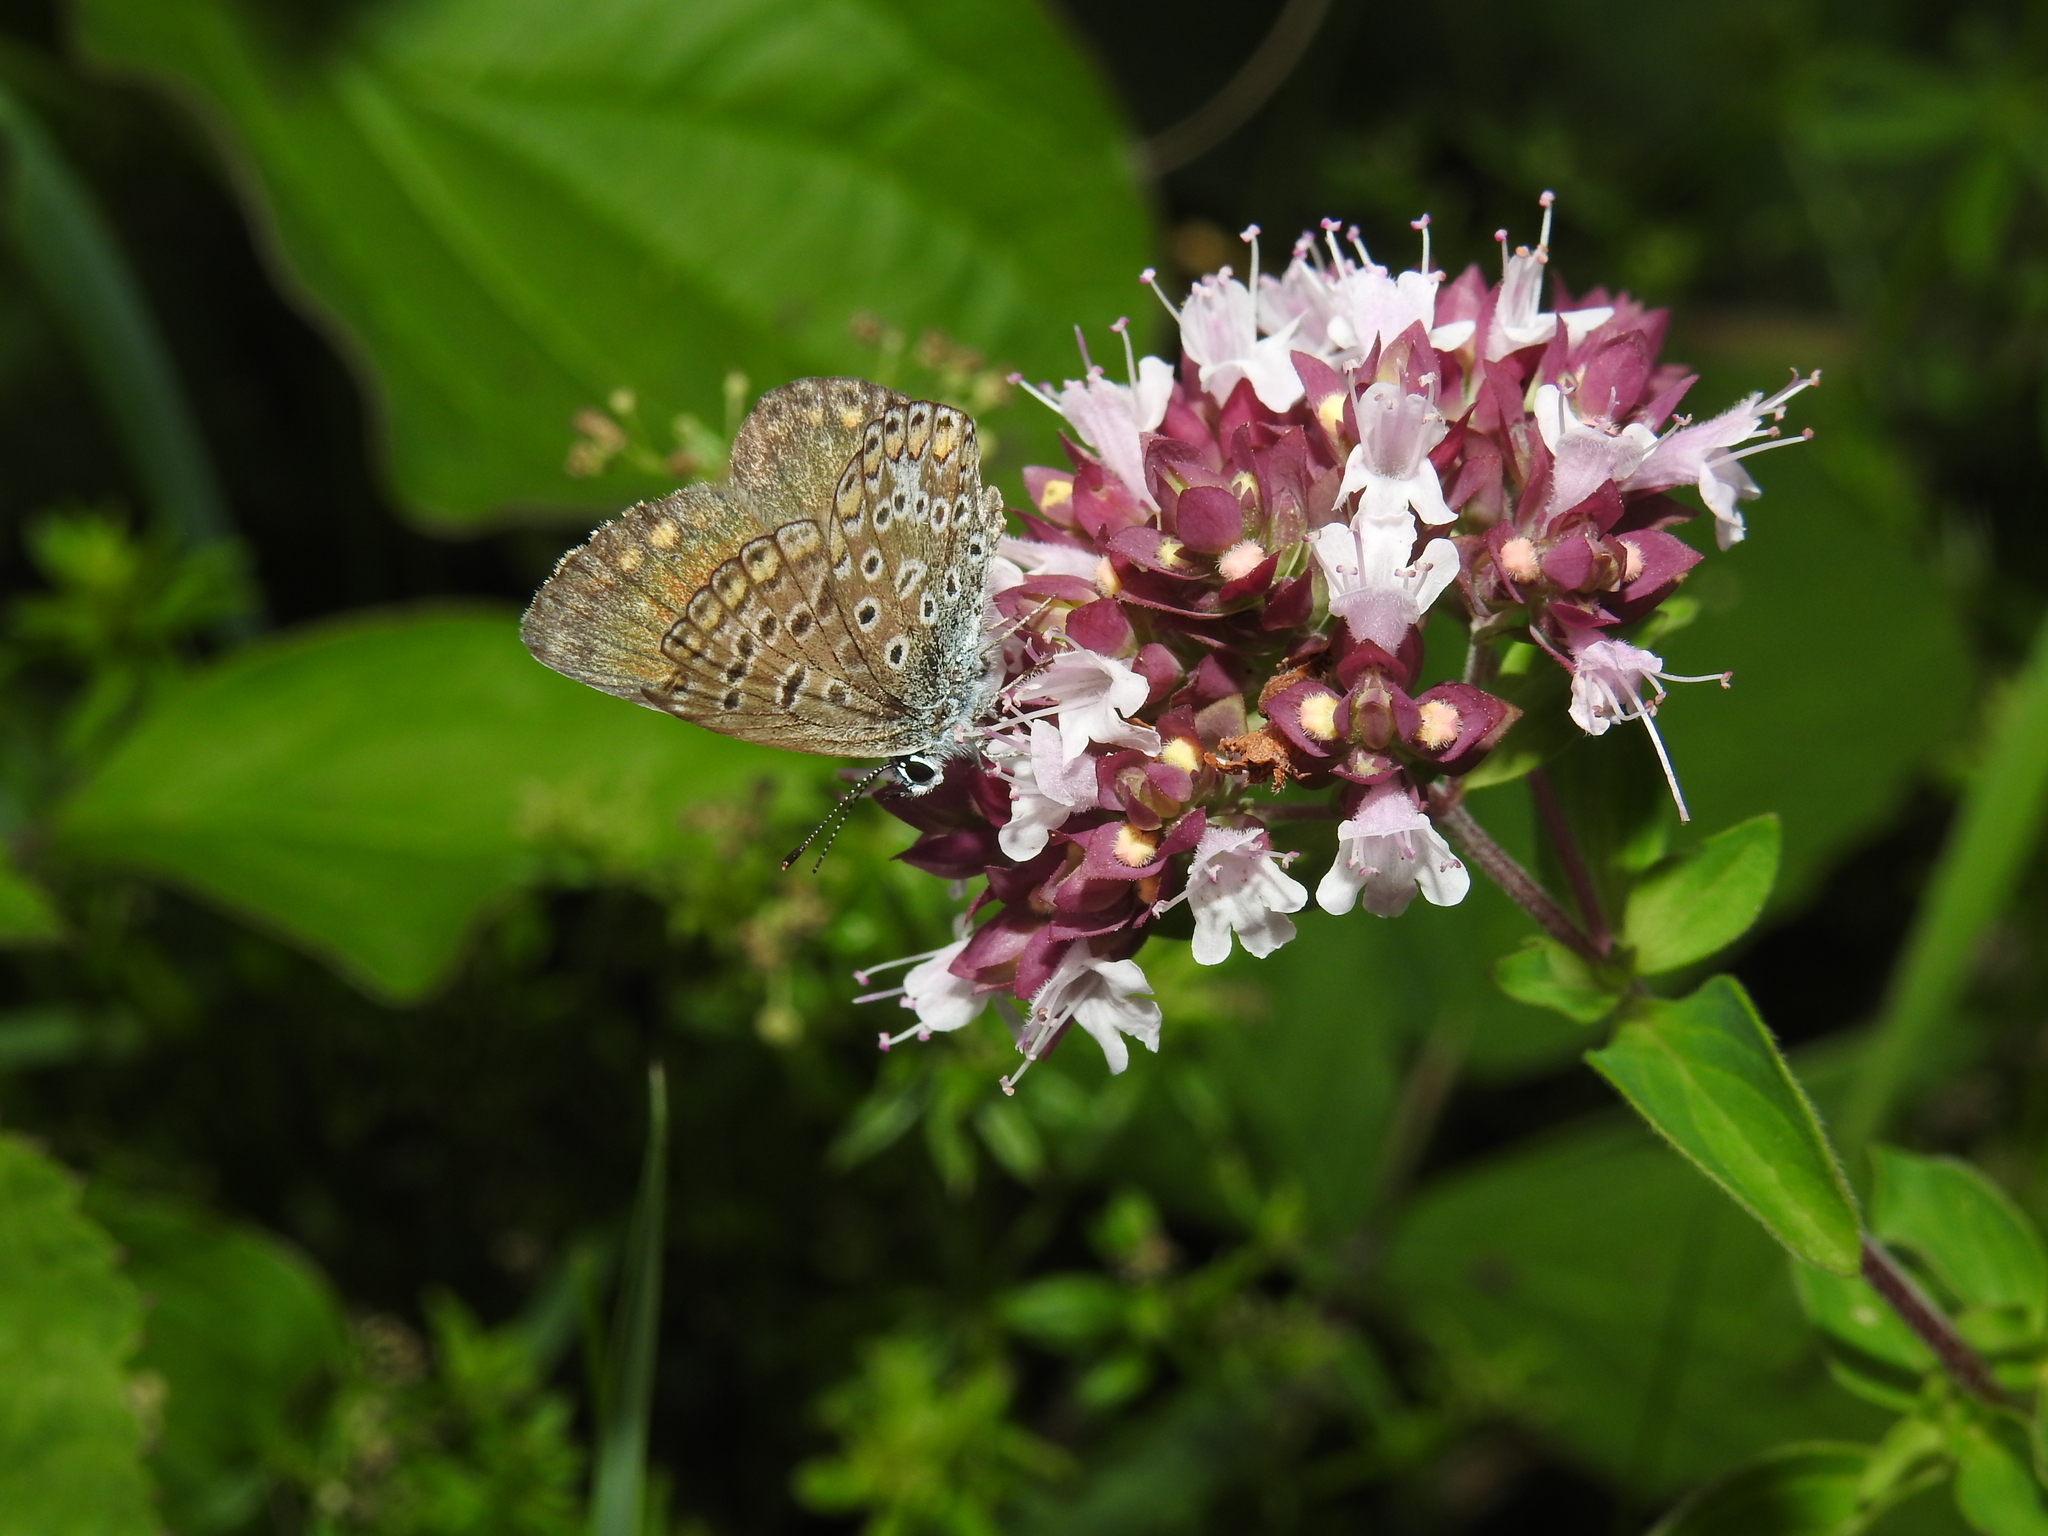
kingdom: Animalia
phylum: Arthropoda
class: Insecta
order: Lepidoptera
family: Lycaenidae
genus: Polyommatus
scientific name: Polyommatus icarus
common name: Common blue
